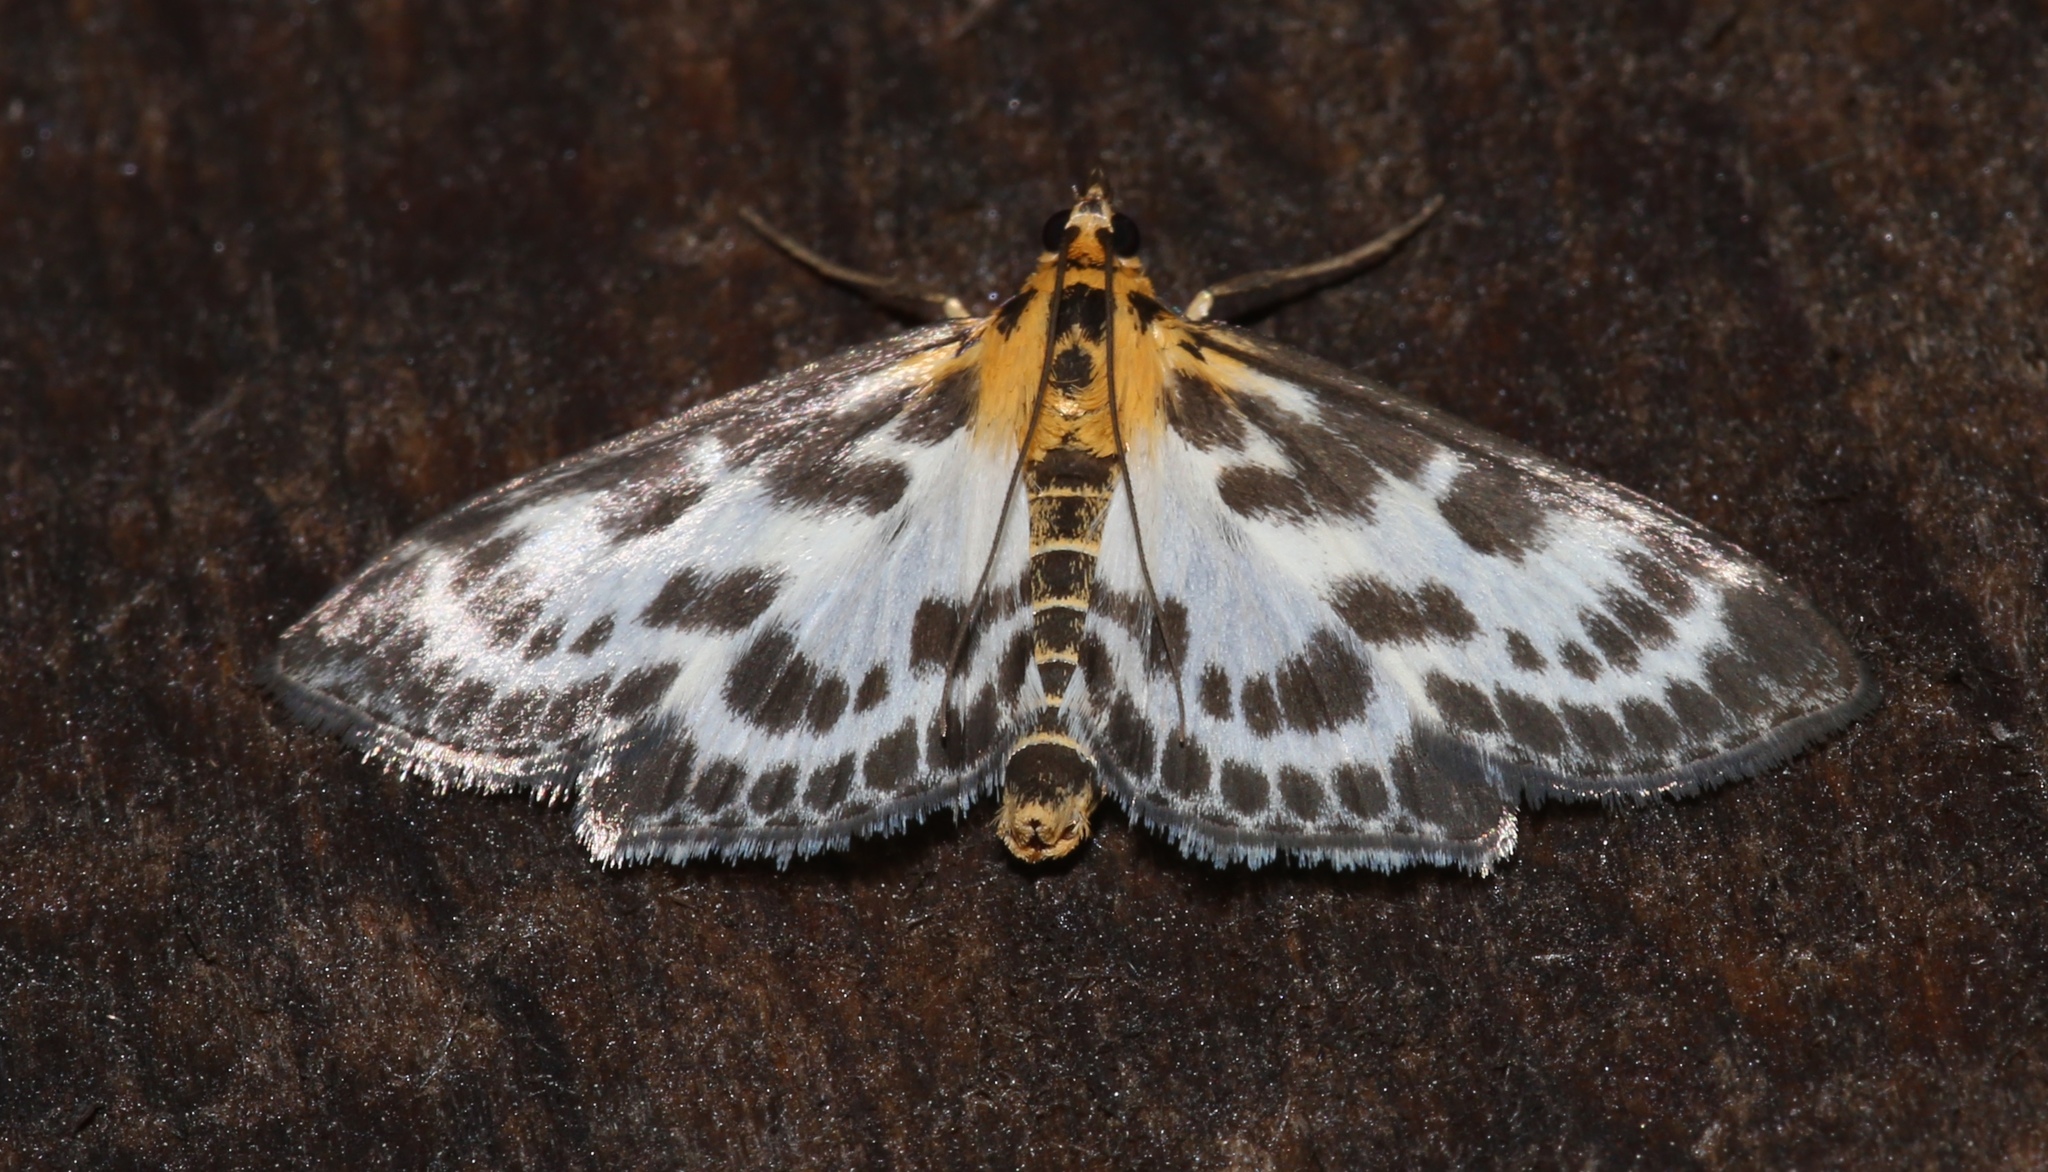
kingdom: Animalia
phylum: Arthropoda
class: Insecta
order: Lepidoptera
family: Crambidae
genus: Anania
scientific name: Anania hortulata
